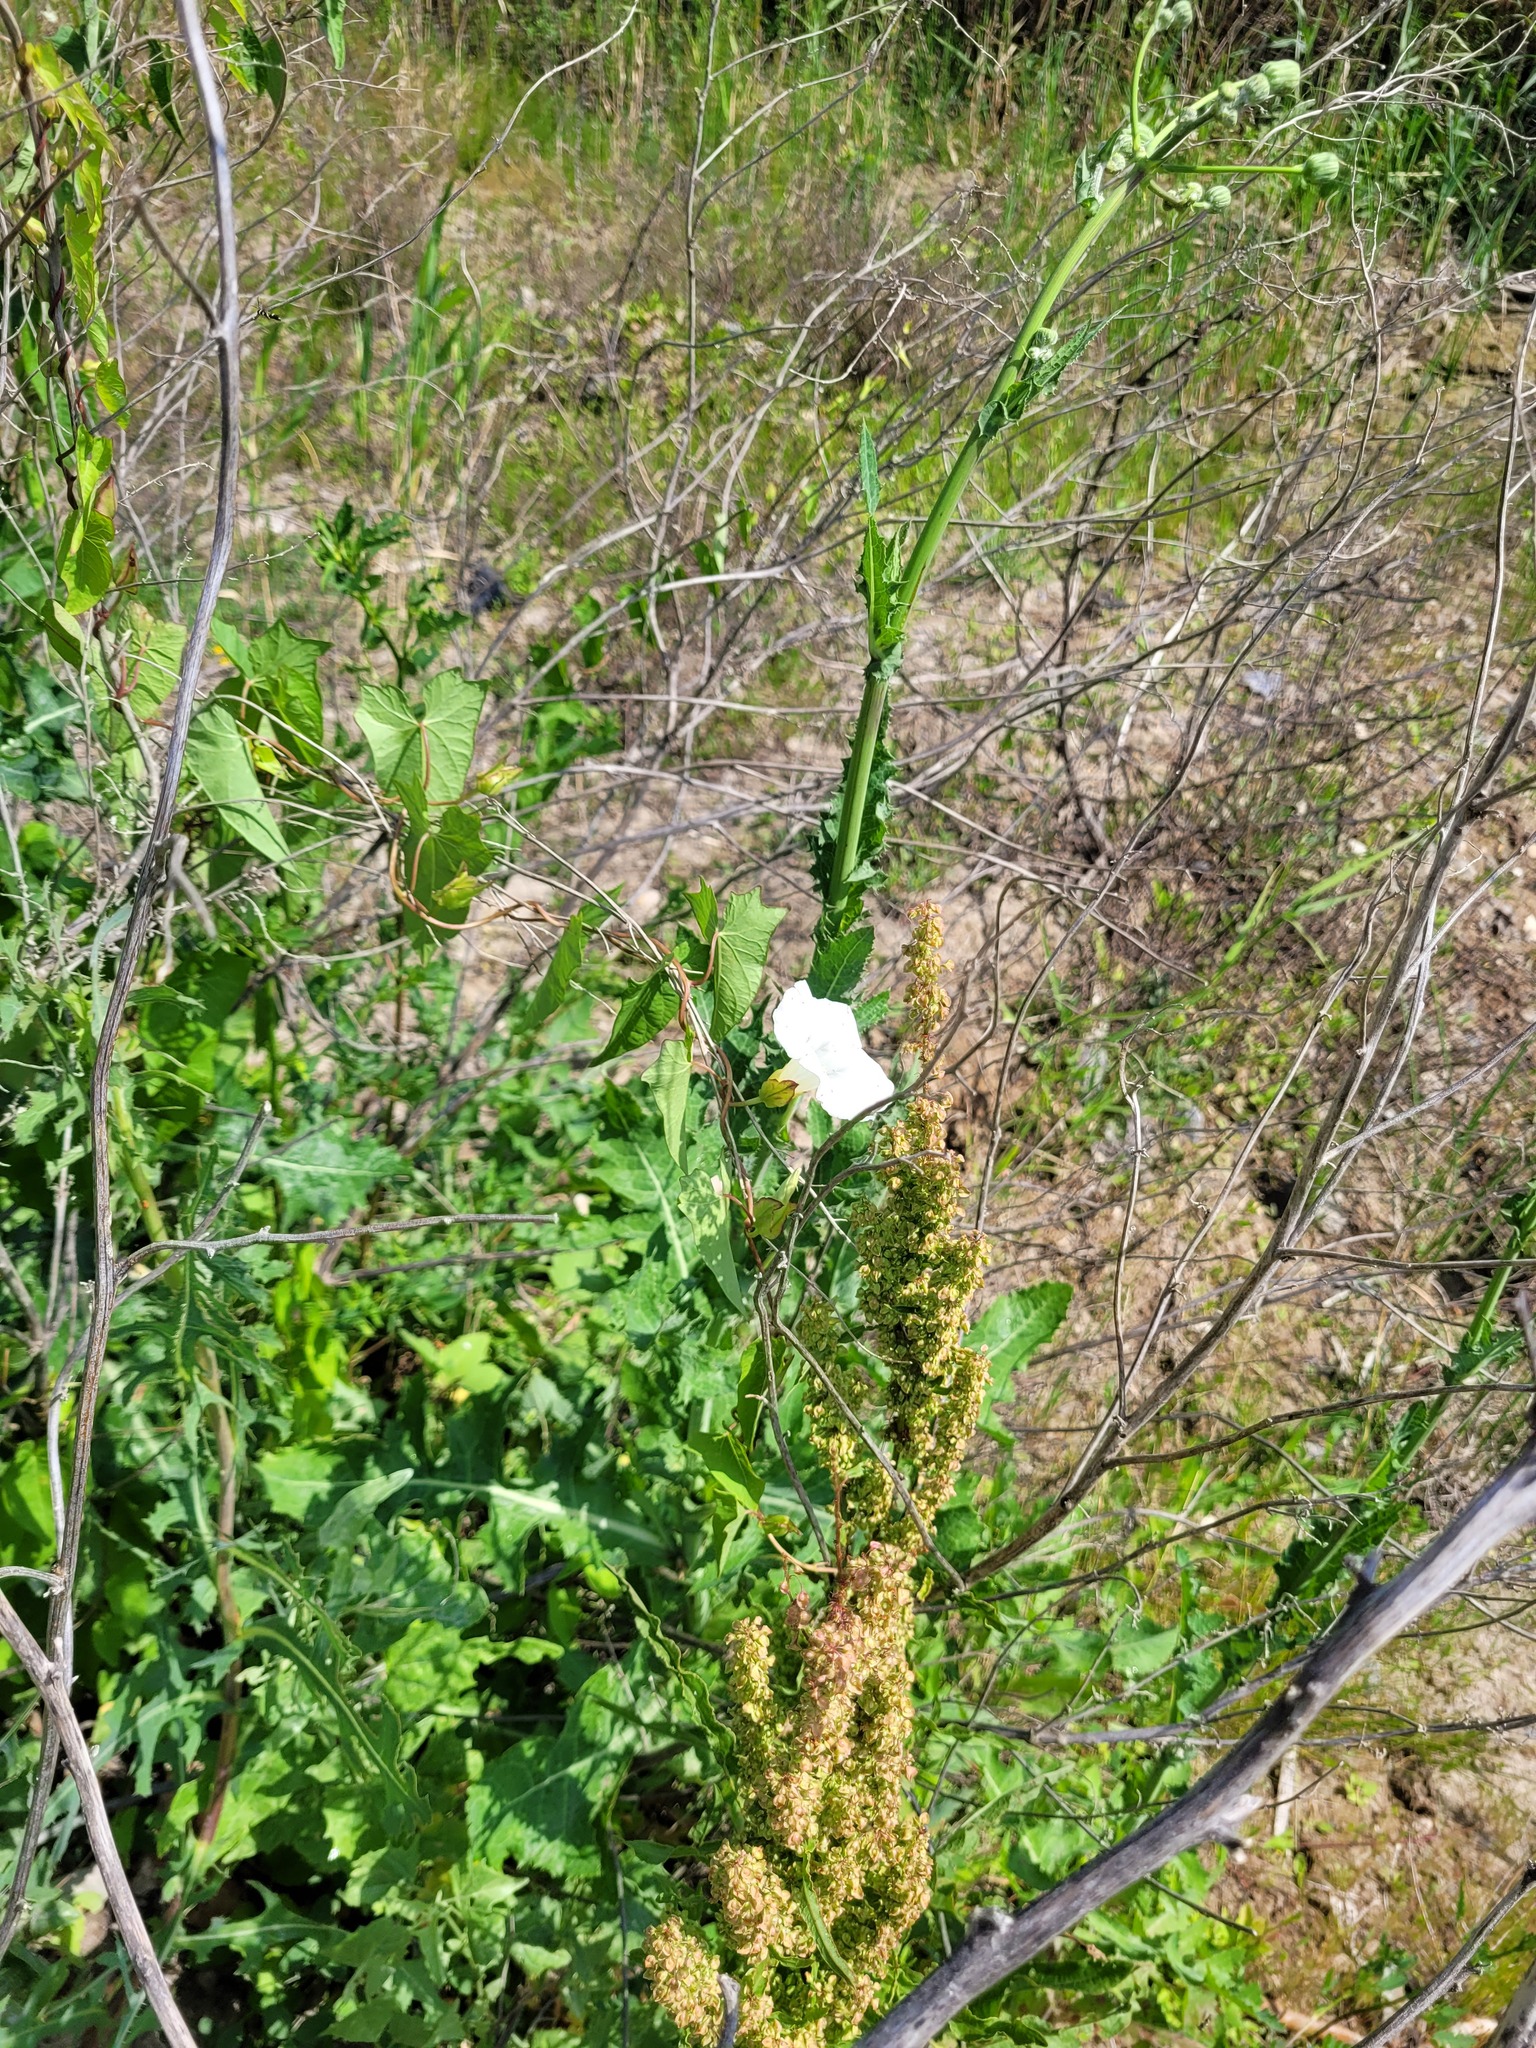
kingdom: Plantae
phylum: Tracheophyta
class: Magnoliopsida
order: Solanales
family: Convolvulaceae
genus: Calystegia
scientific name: Calystegia sepium
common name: Hedge bindweed
